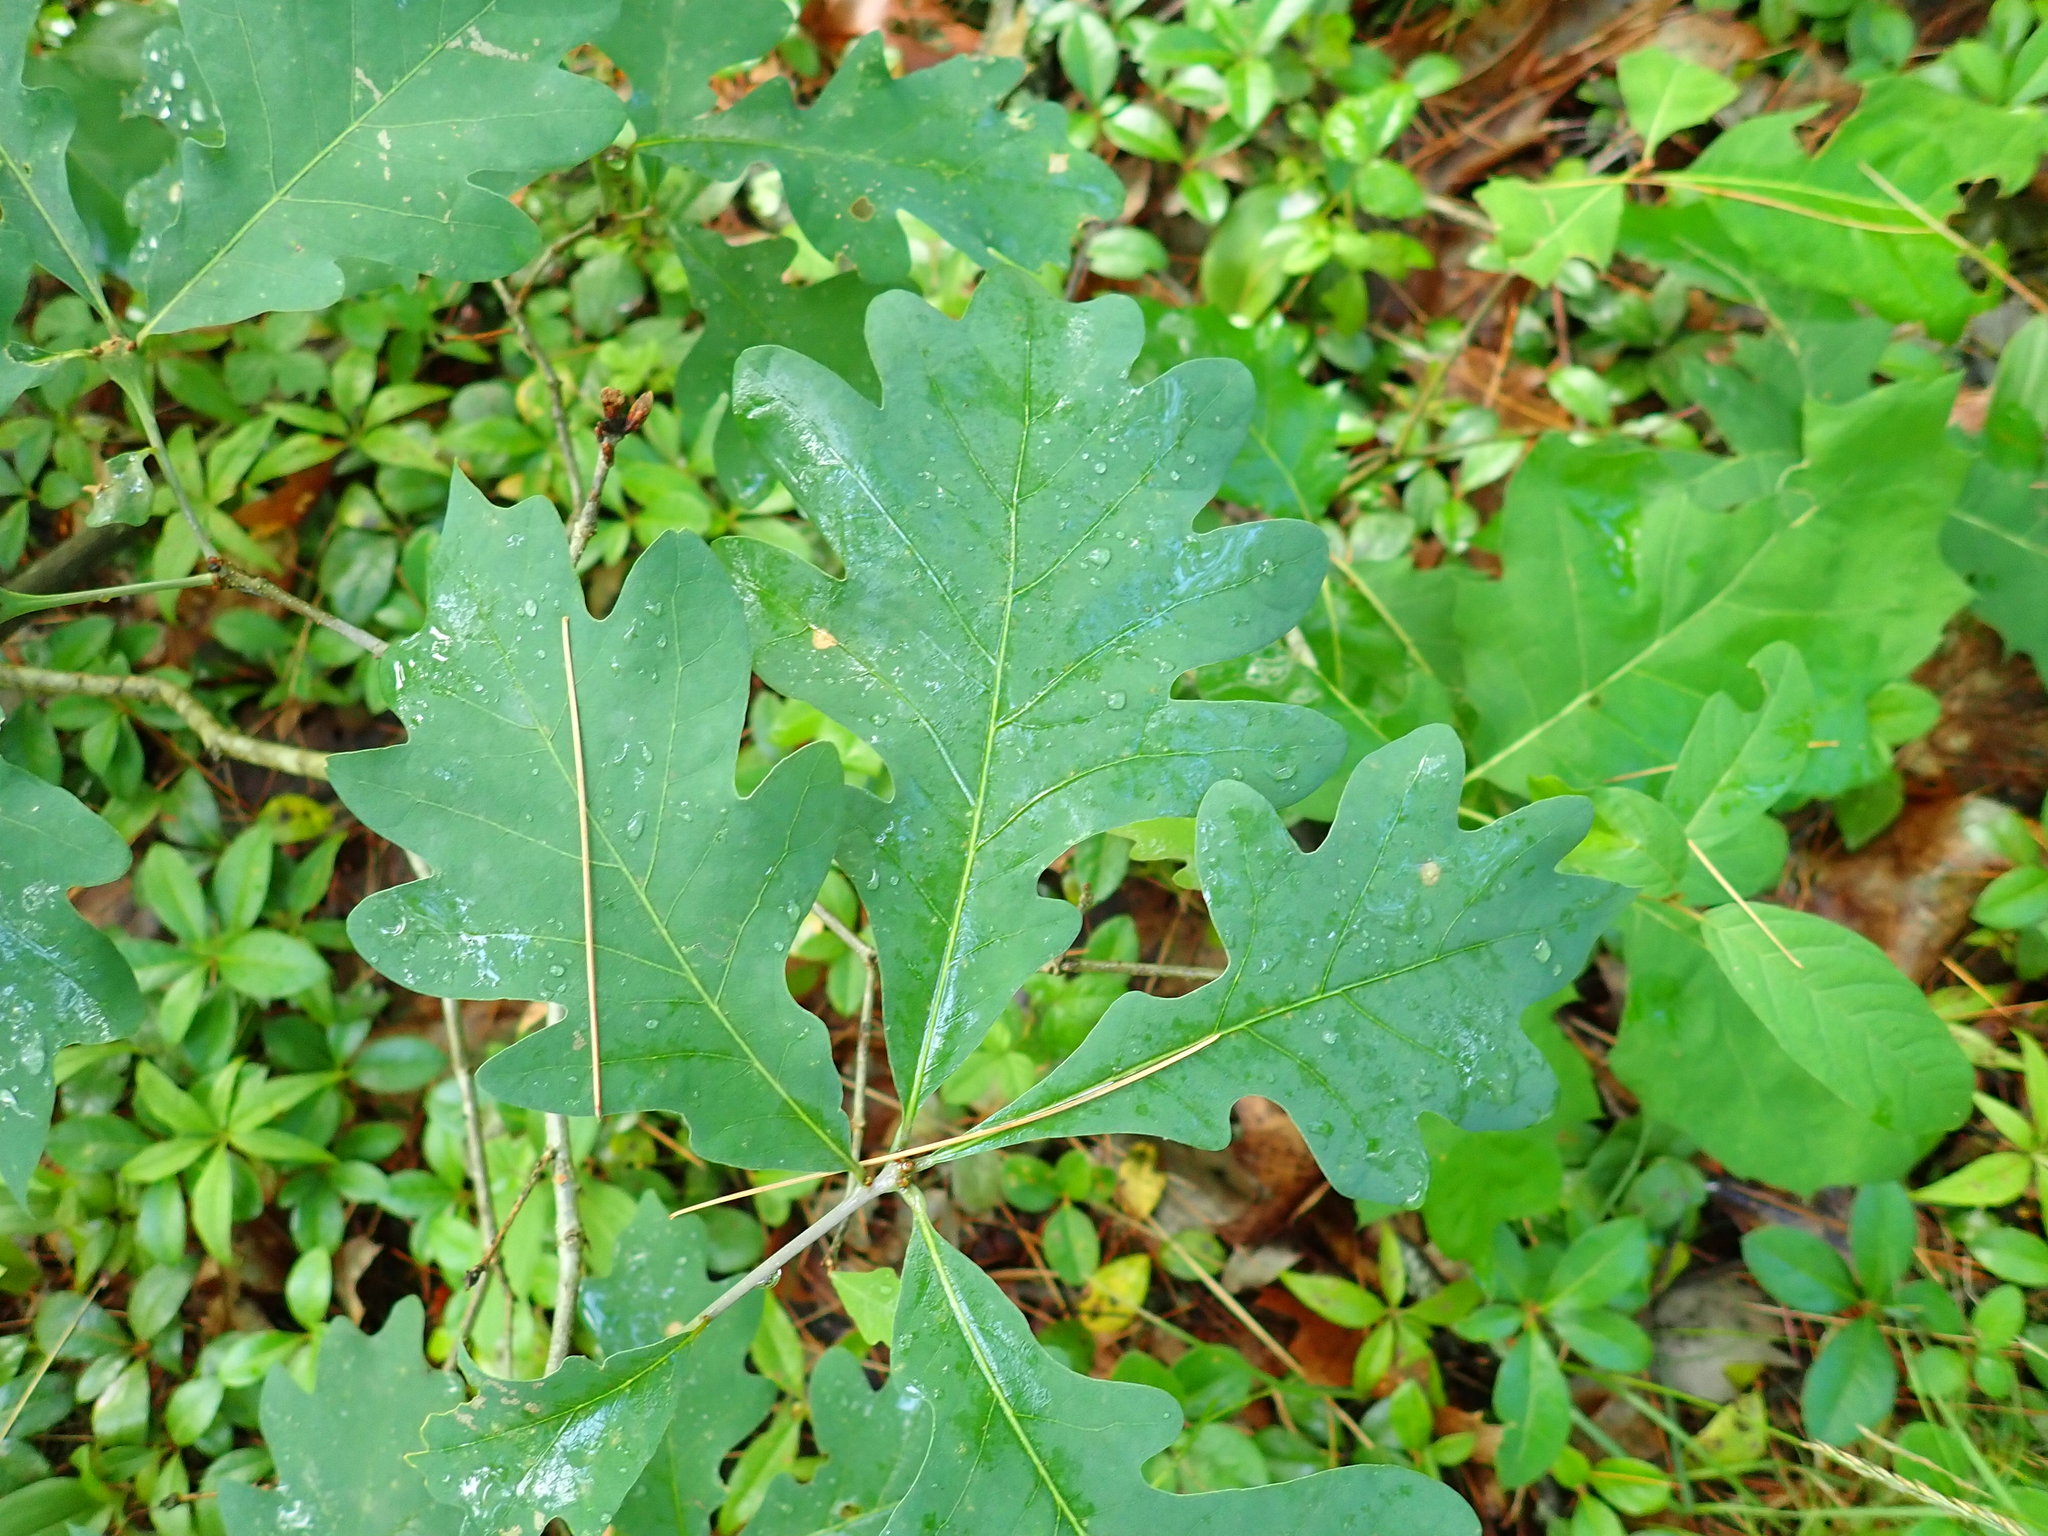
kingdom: Plantae
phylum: Tracheophyta
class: Magnoliopsida
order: Fagales
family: Fagaceae
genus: Quercus
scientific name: Quercus alba
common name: White oak
